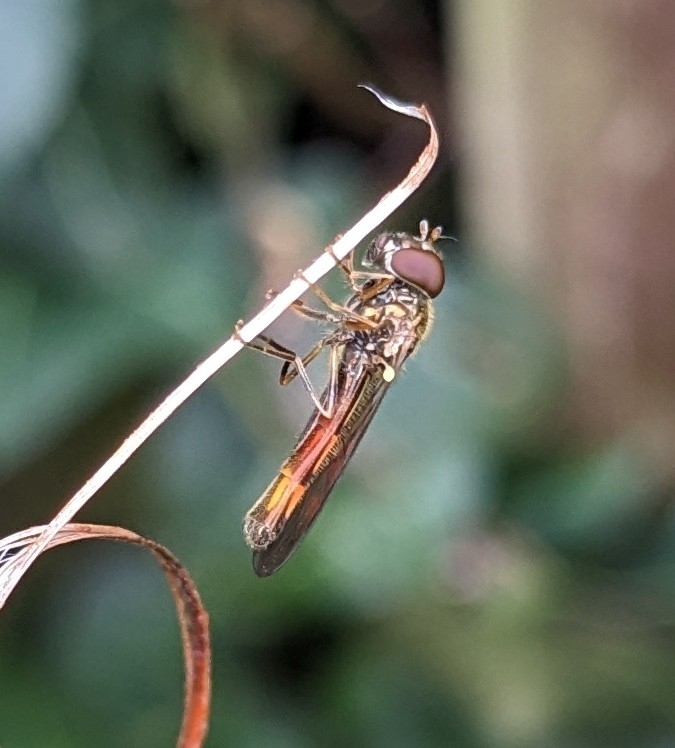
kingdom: Animalia
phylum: Arthropoda
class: Insecta
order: Diptera
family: Syrphidae
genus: Melanostoma
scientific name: Melanostoma scalare
